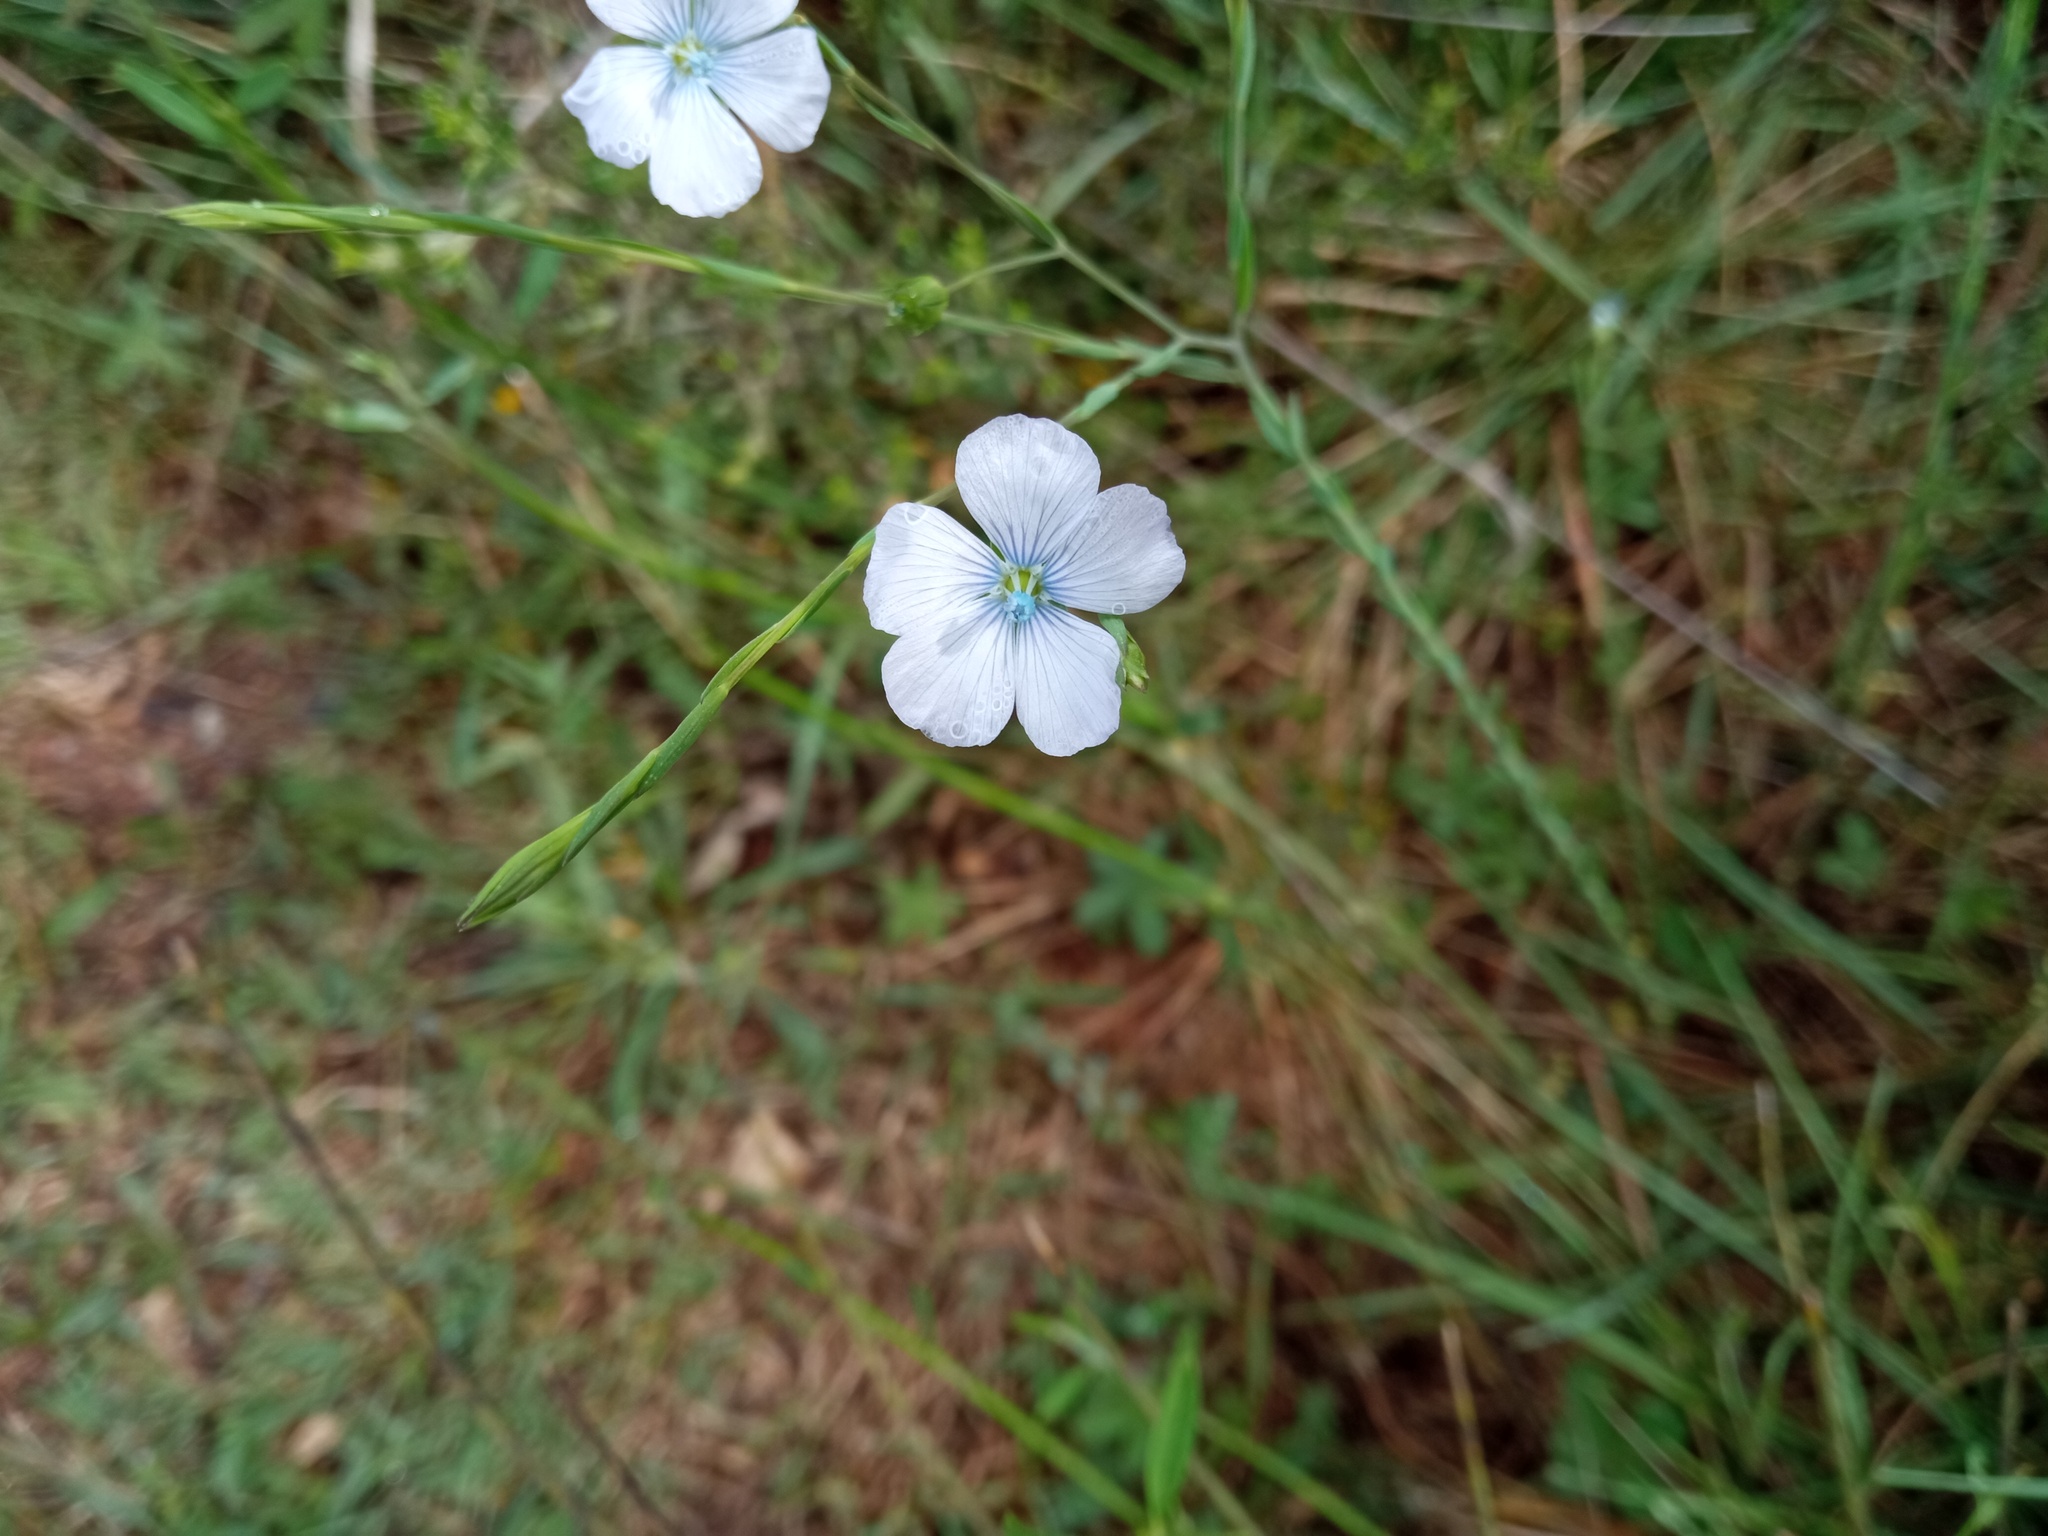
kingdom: Plantae
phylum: Tracheophyta
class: Magnoliopsida
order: Malpighiales
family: Linaceae
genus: Linum
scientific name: Linum bienne
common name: Pale flax
